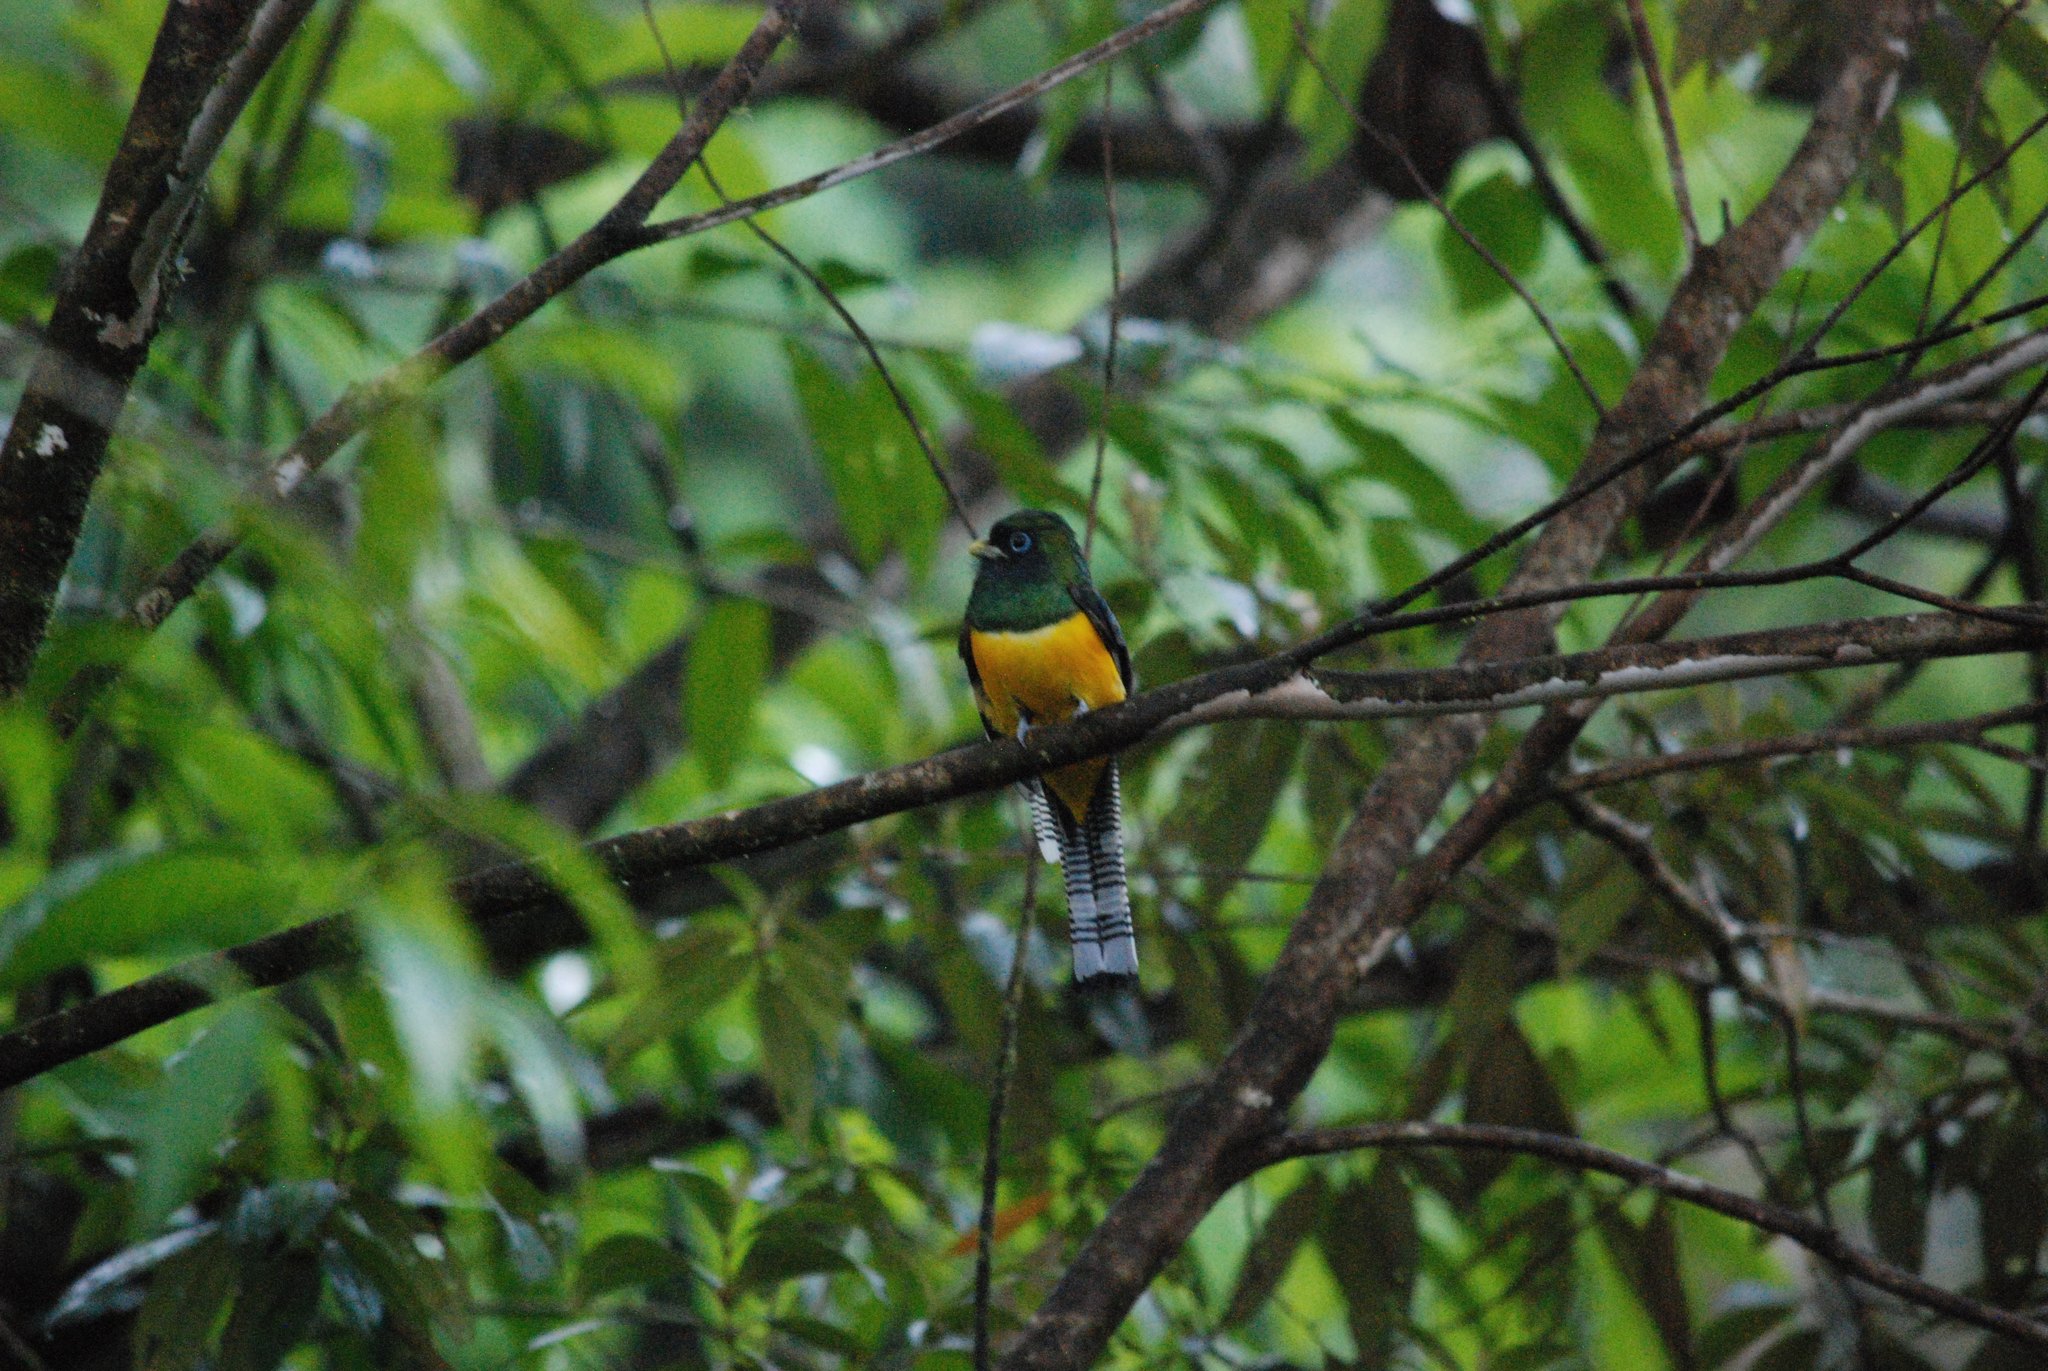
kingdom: Animalia
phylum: Chordata
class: Aves
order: Trogoniformes
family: Trogonidae
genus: Trogon
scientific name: Trogon rufus
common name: Black-throated trogon
